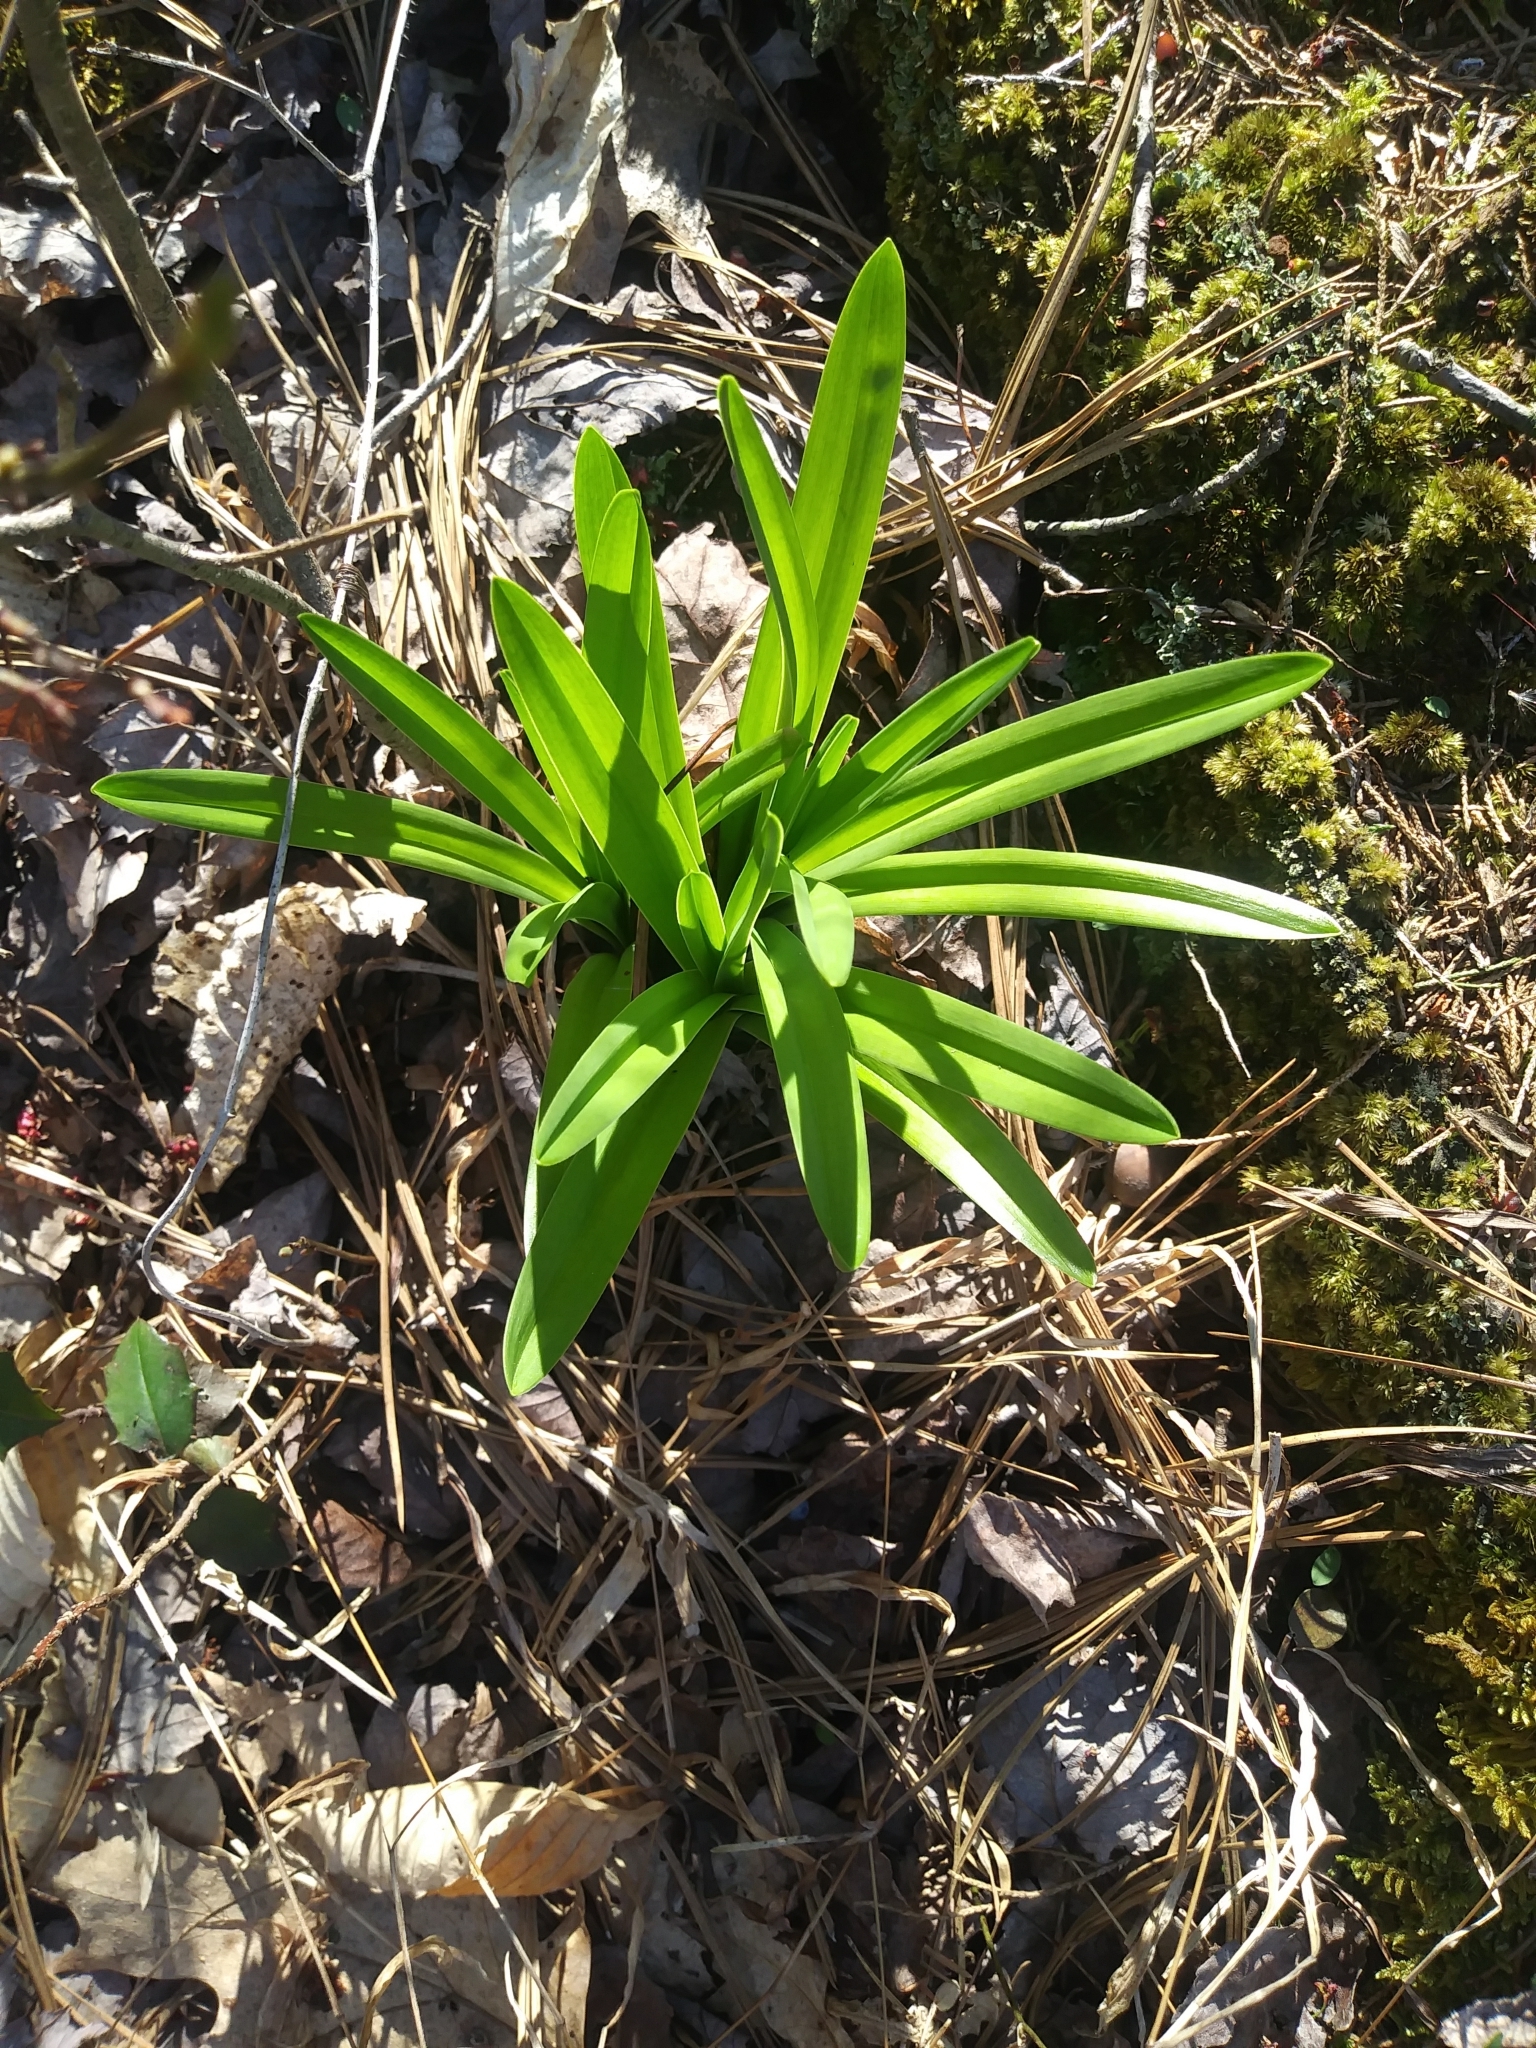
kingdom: Plantae
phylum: Tracheophyta
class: Liliopsida
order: Liliales
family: Melanthiaceae
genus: Amianthium
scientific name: Amianthium muscitoxicum
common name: Fly-poison
